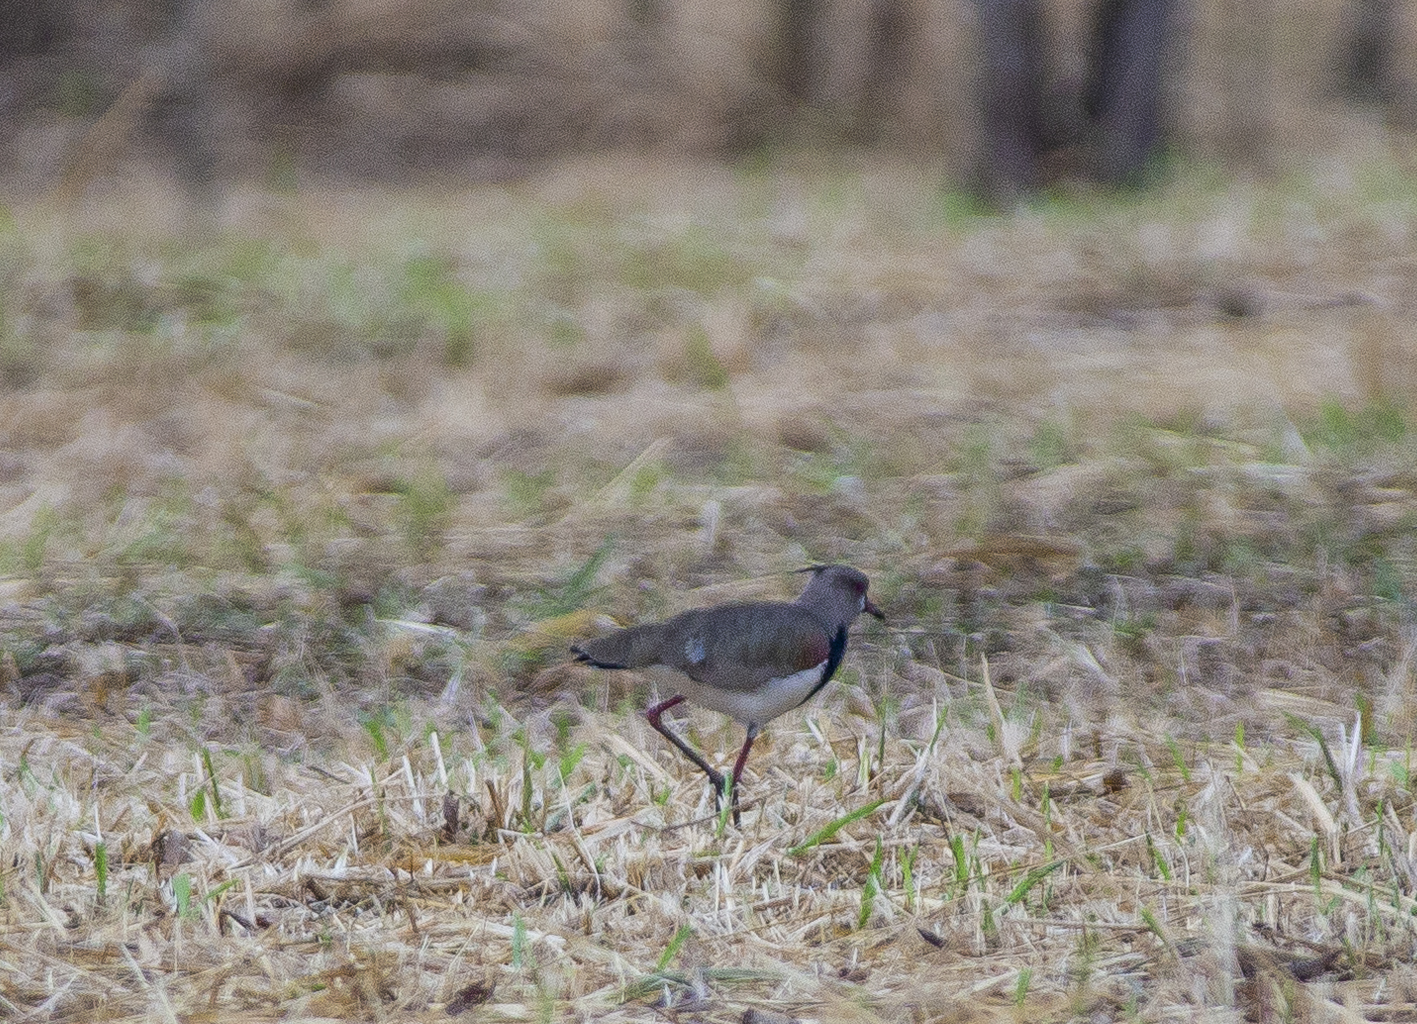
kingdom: Animalia
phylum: Chordata
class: Aves
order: Charadriiformes
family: Charadriidae
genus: Vanellus
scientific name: Vanellus chilensis
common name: Southern lapwing
